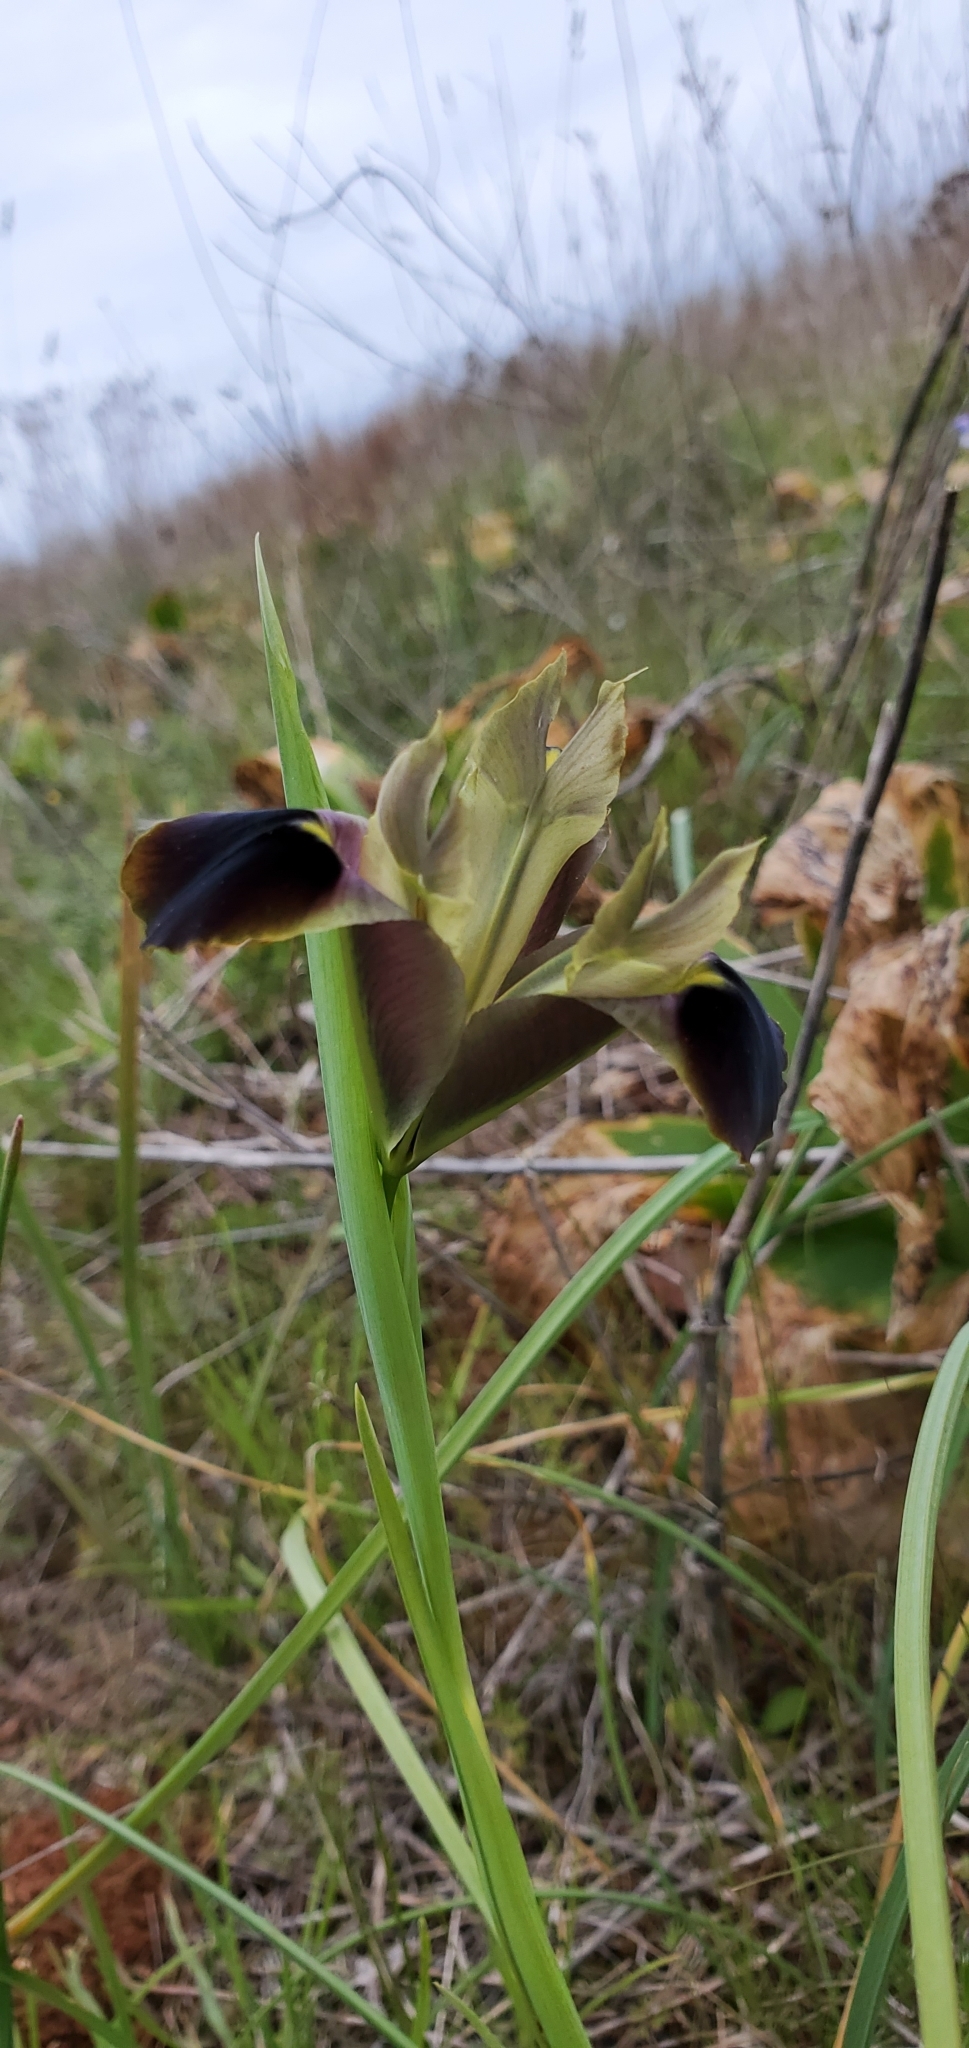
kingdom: Plantae
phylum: Tracheophyta
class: Liliopsida
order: Asparagales
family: Iridaceae
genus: Iris
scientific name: Iris tuberosa
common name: Snake's-head iris
